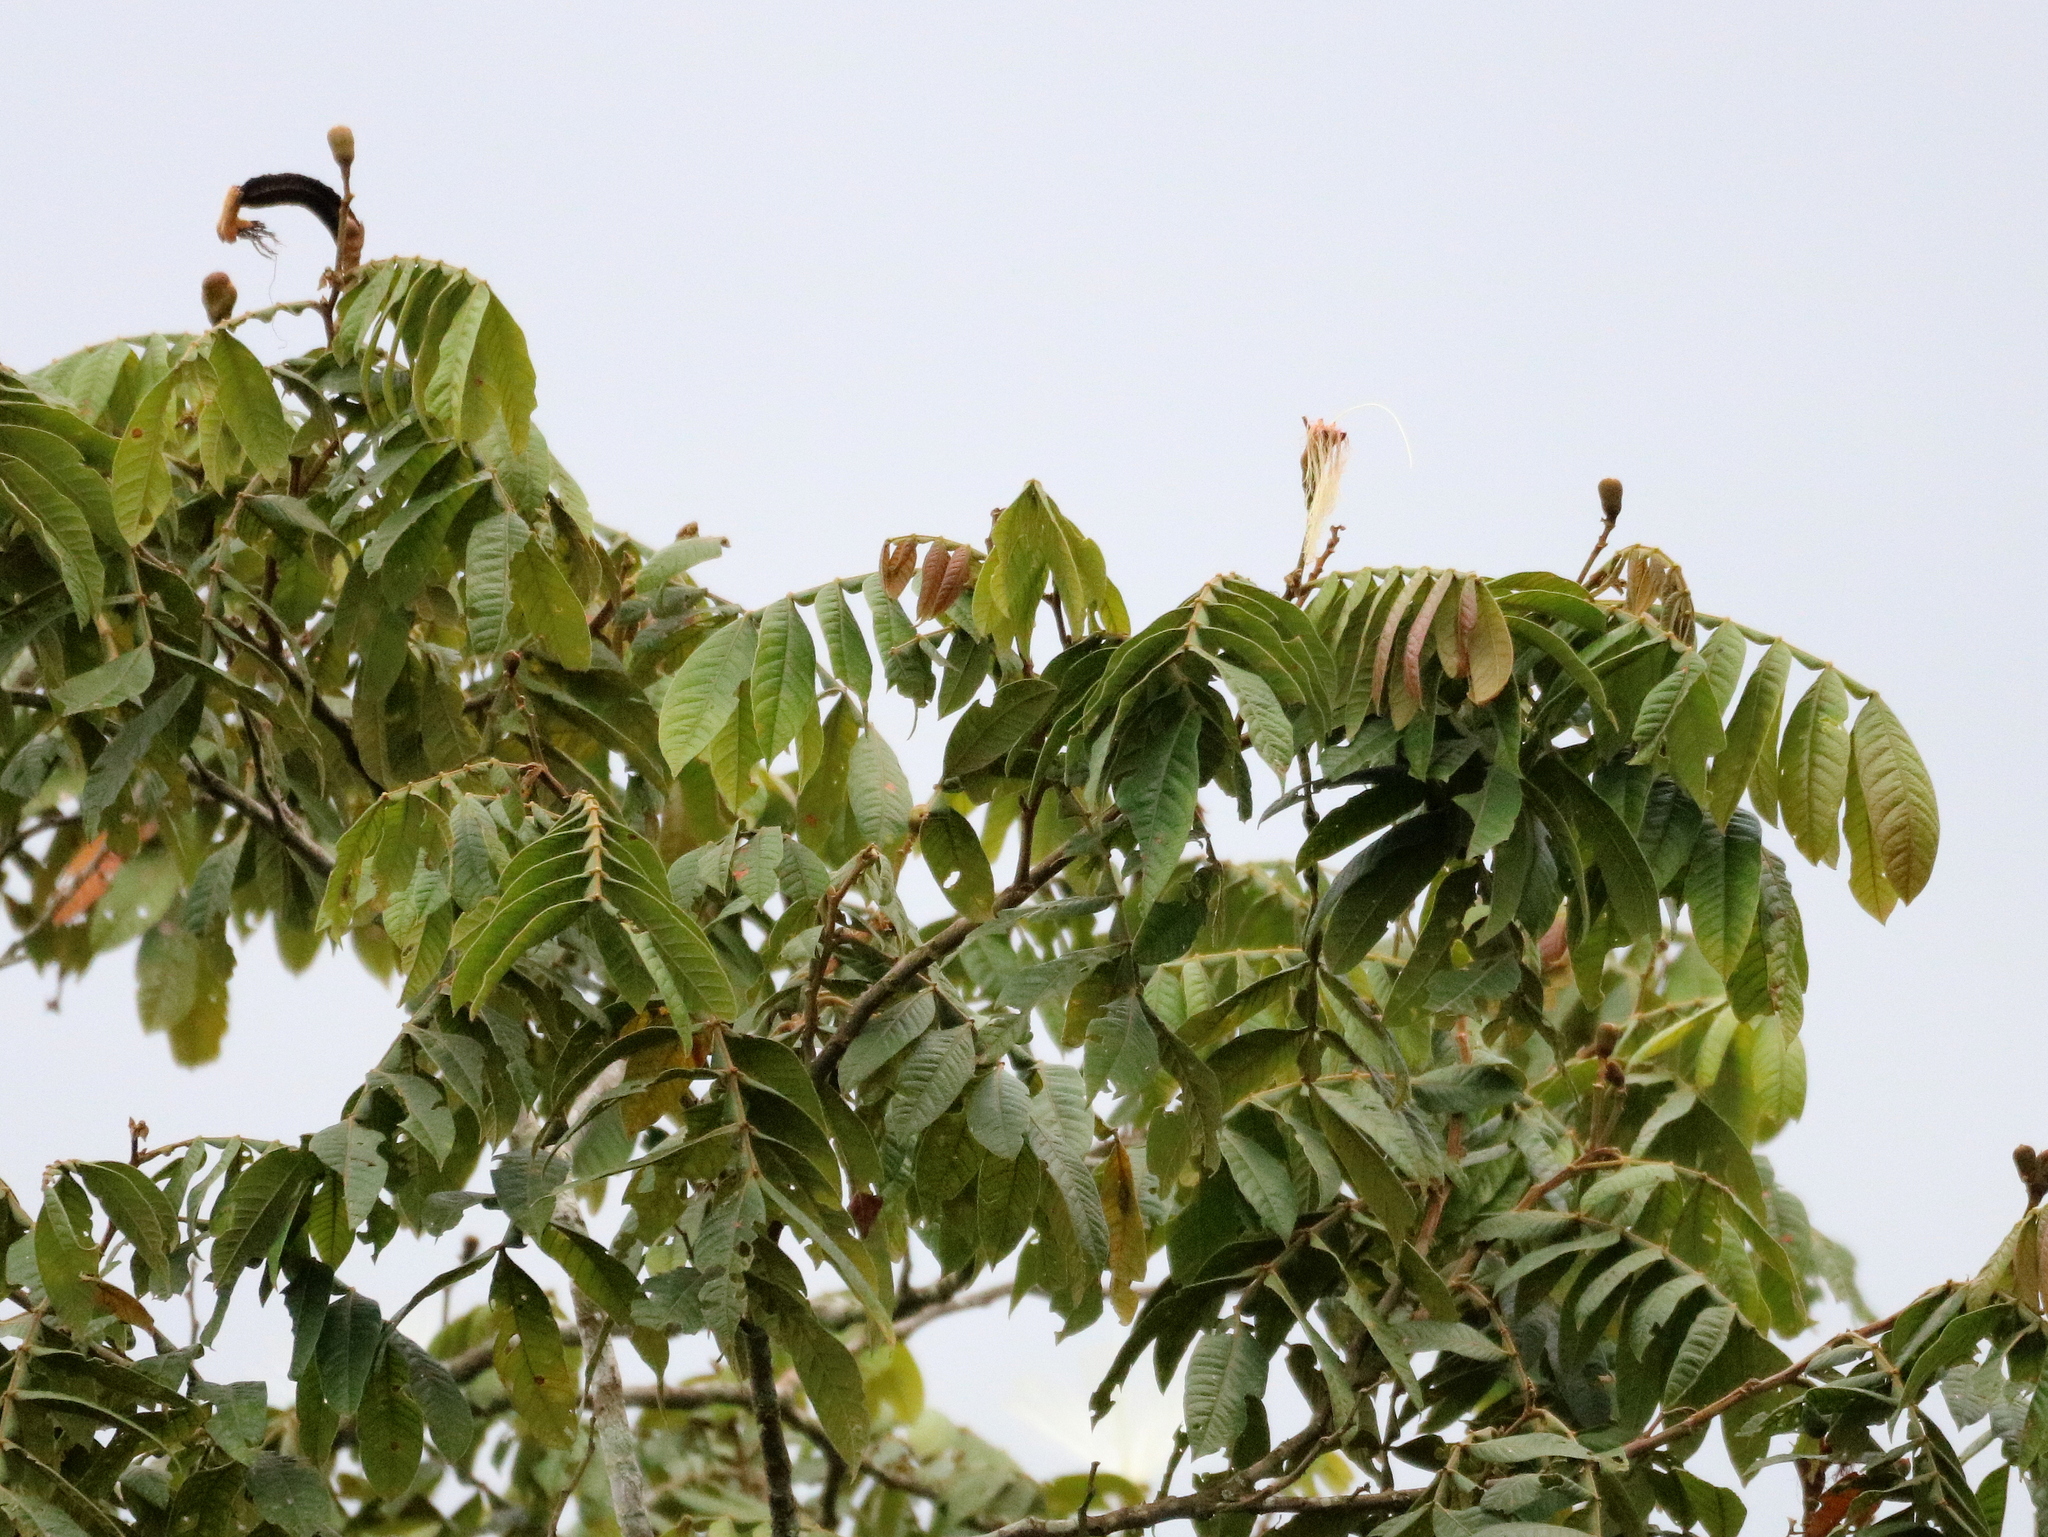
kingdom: Plantae
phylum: Tracheophyta
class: Magnoliopsida
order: Fabales
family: Fabaceae
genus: Inga
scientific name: Inga sessilis
